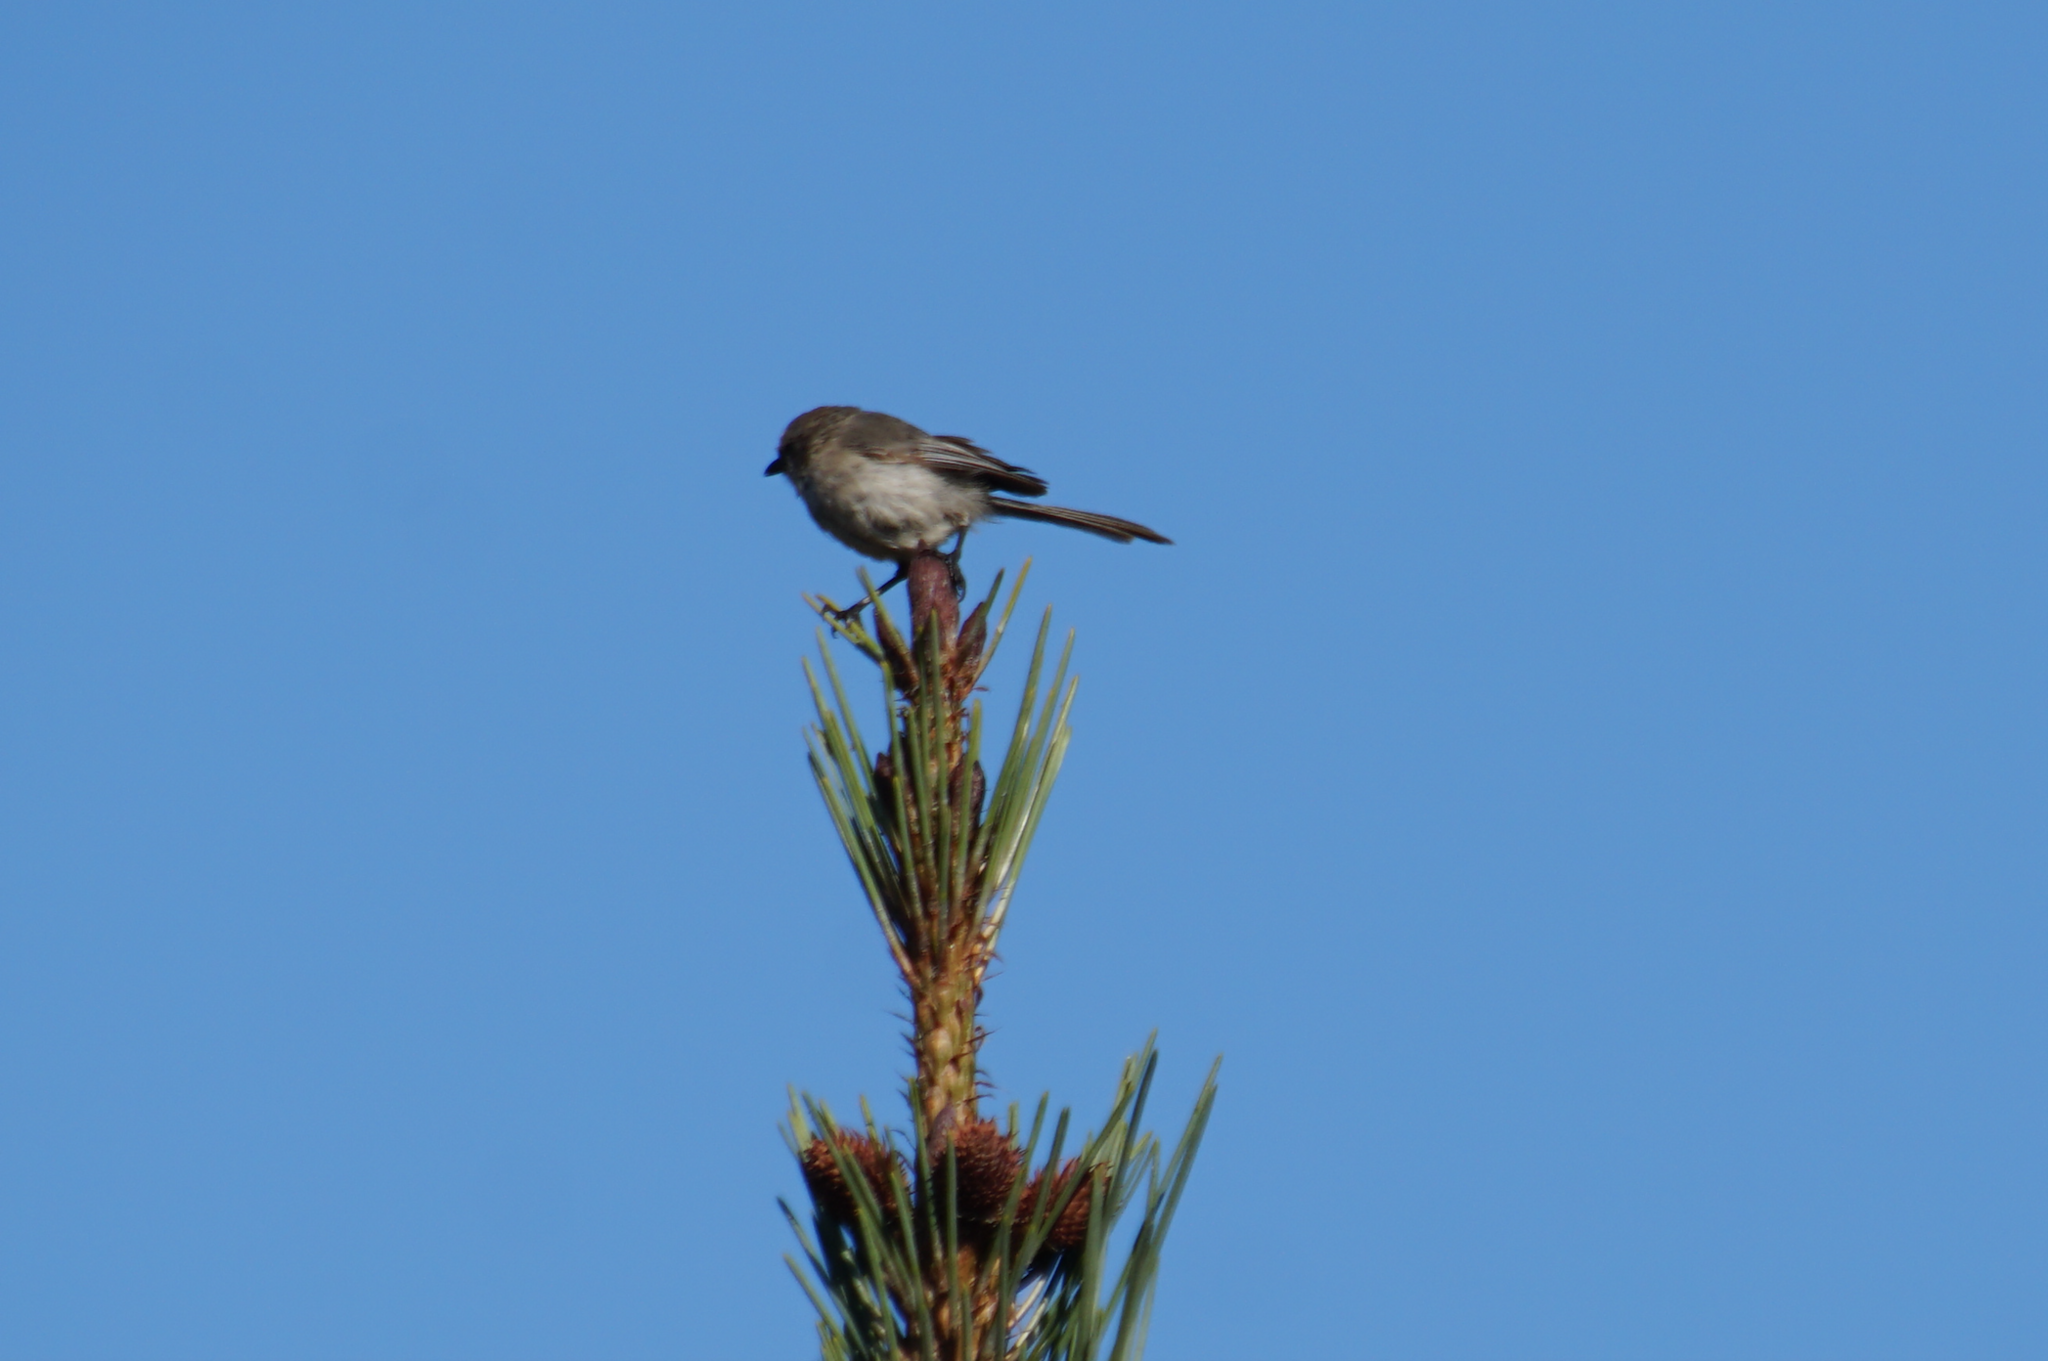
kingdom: Animalia
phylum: Chordata
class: Aves
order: Passeriformes
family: Aegithalidae
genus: Psaltriparus
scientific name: Psaltriparus minimus
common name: American bushtit
